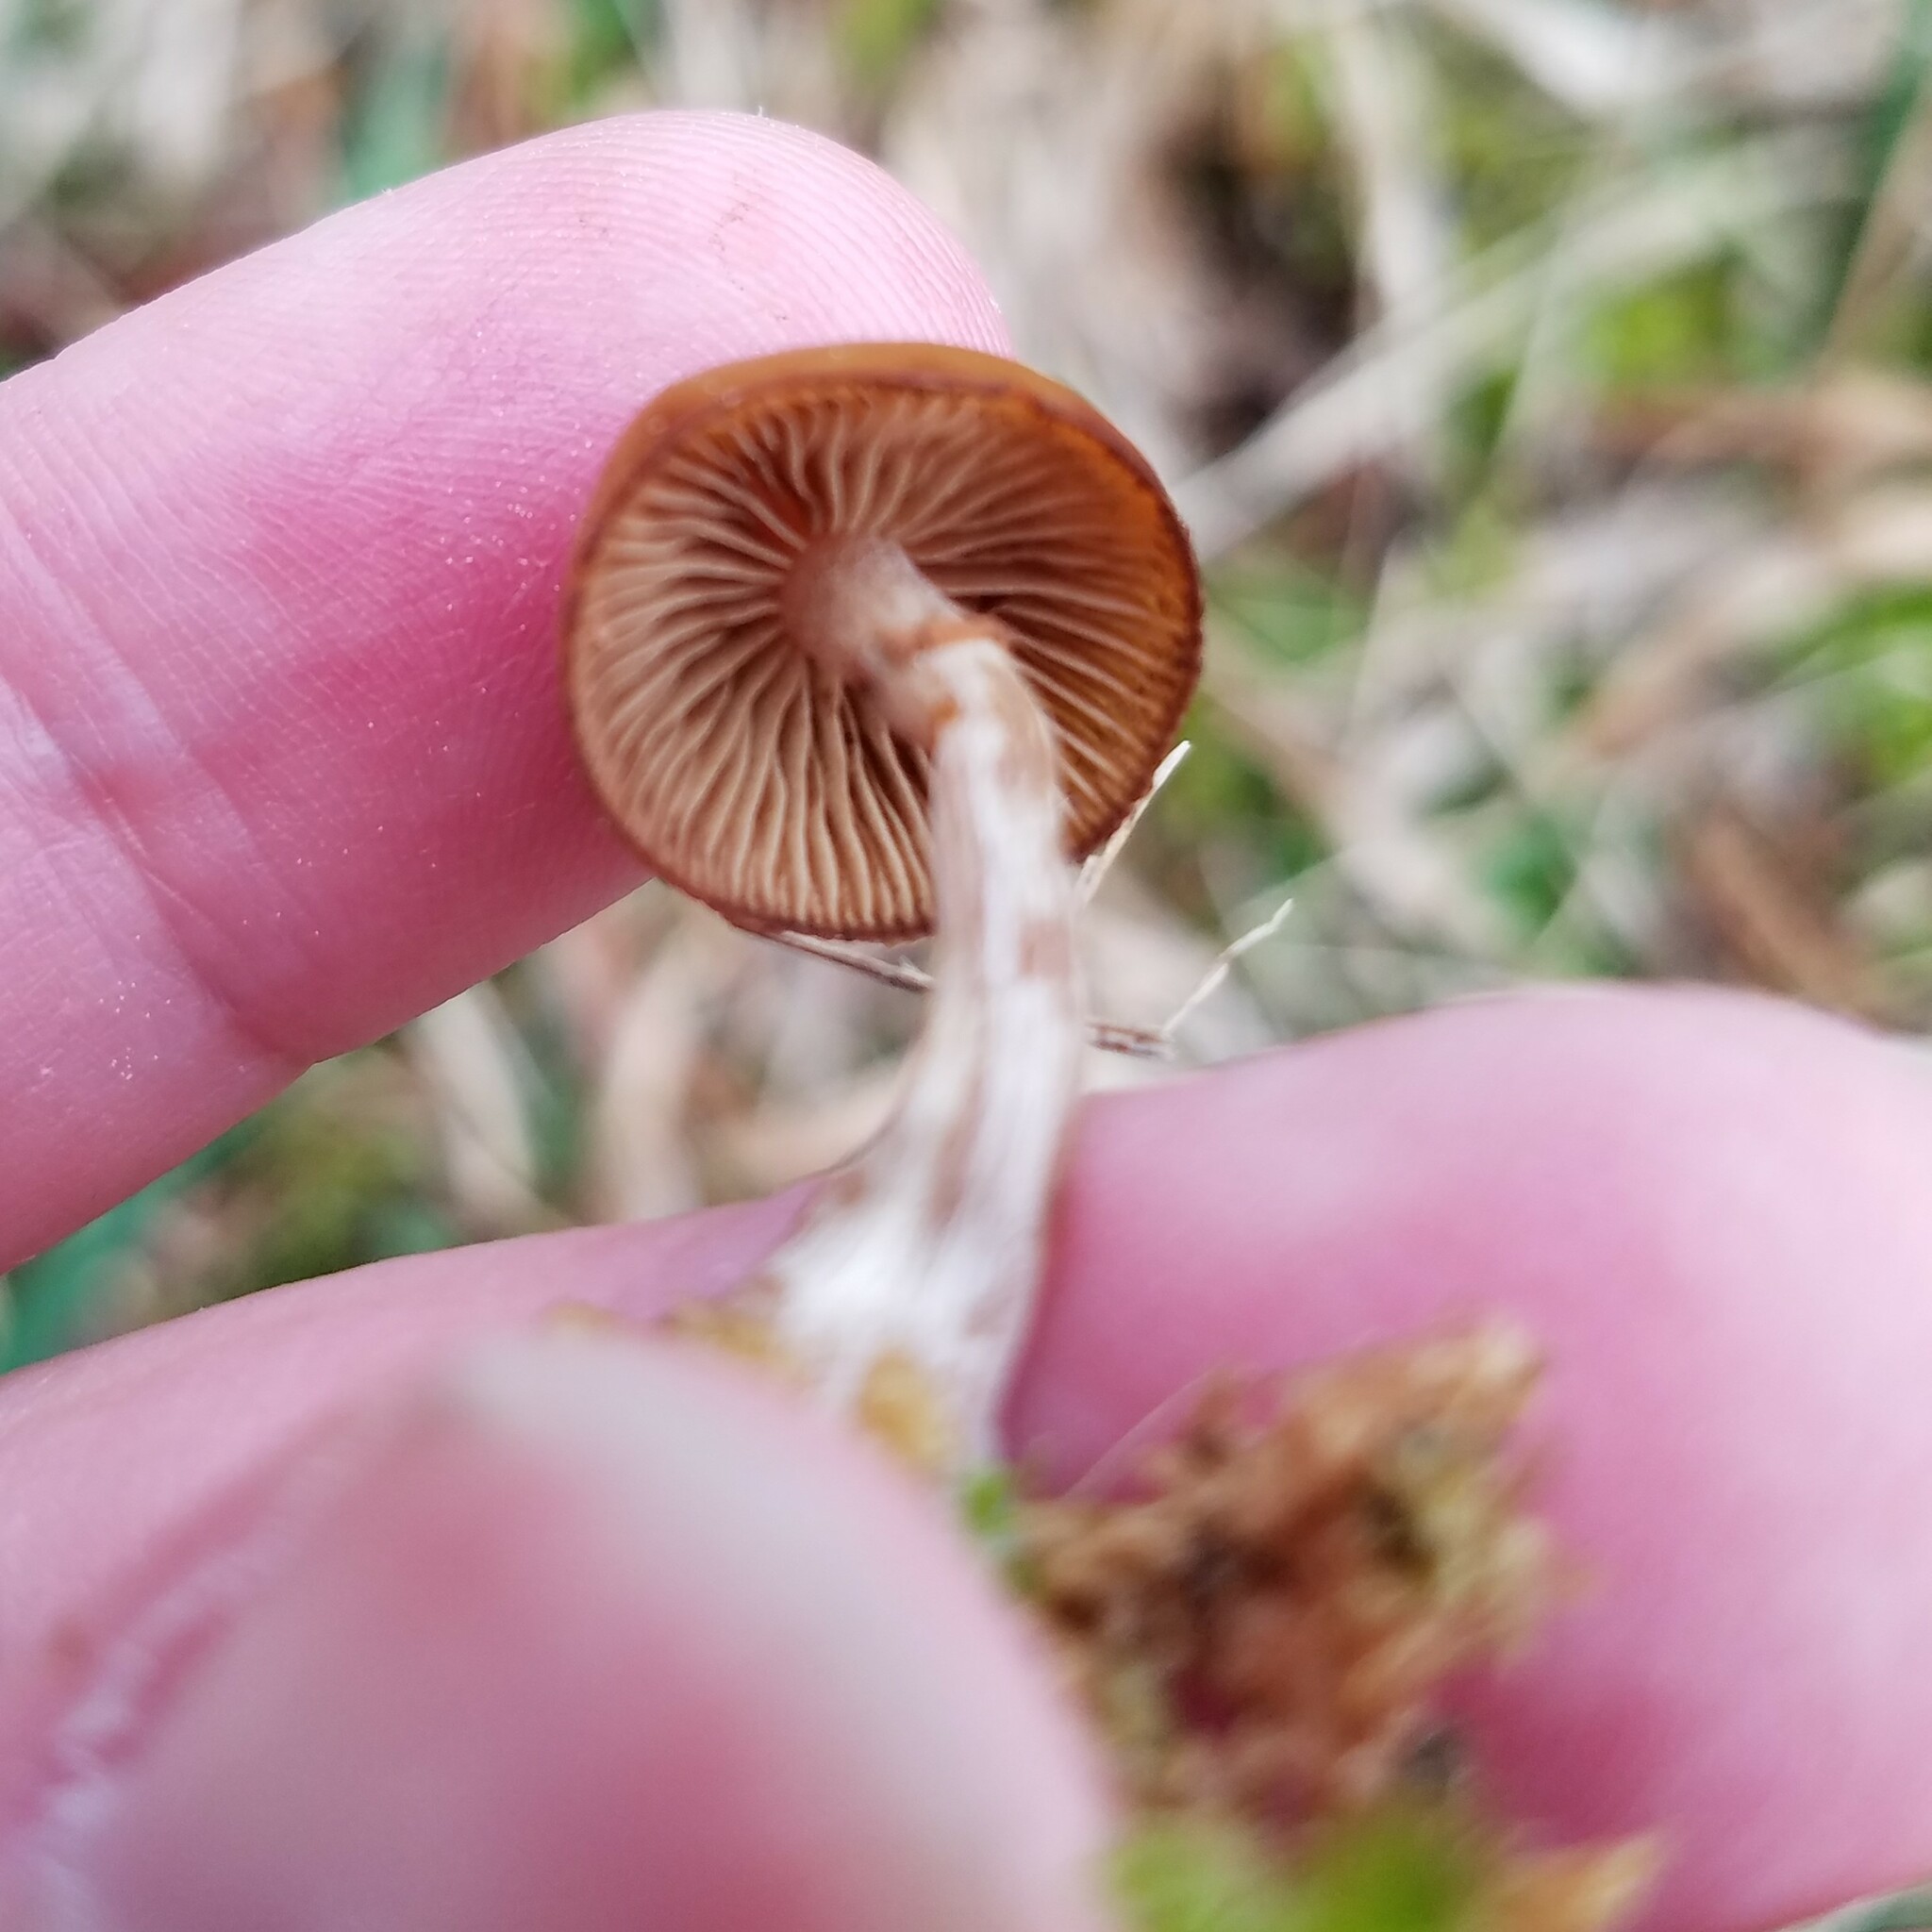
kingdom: Fungi
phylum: Basidiomycota
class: Agaricomycetes
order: Agaricales
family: Hymenogastraceae
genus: Galerina
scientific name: Galerina marginata
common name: Funeral bell
